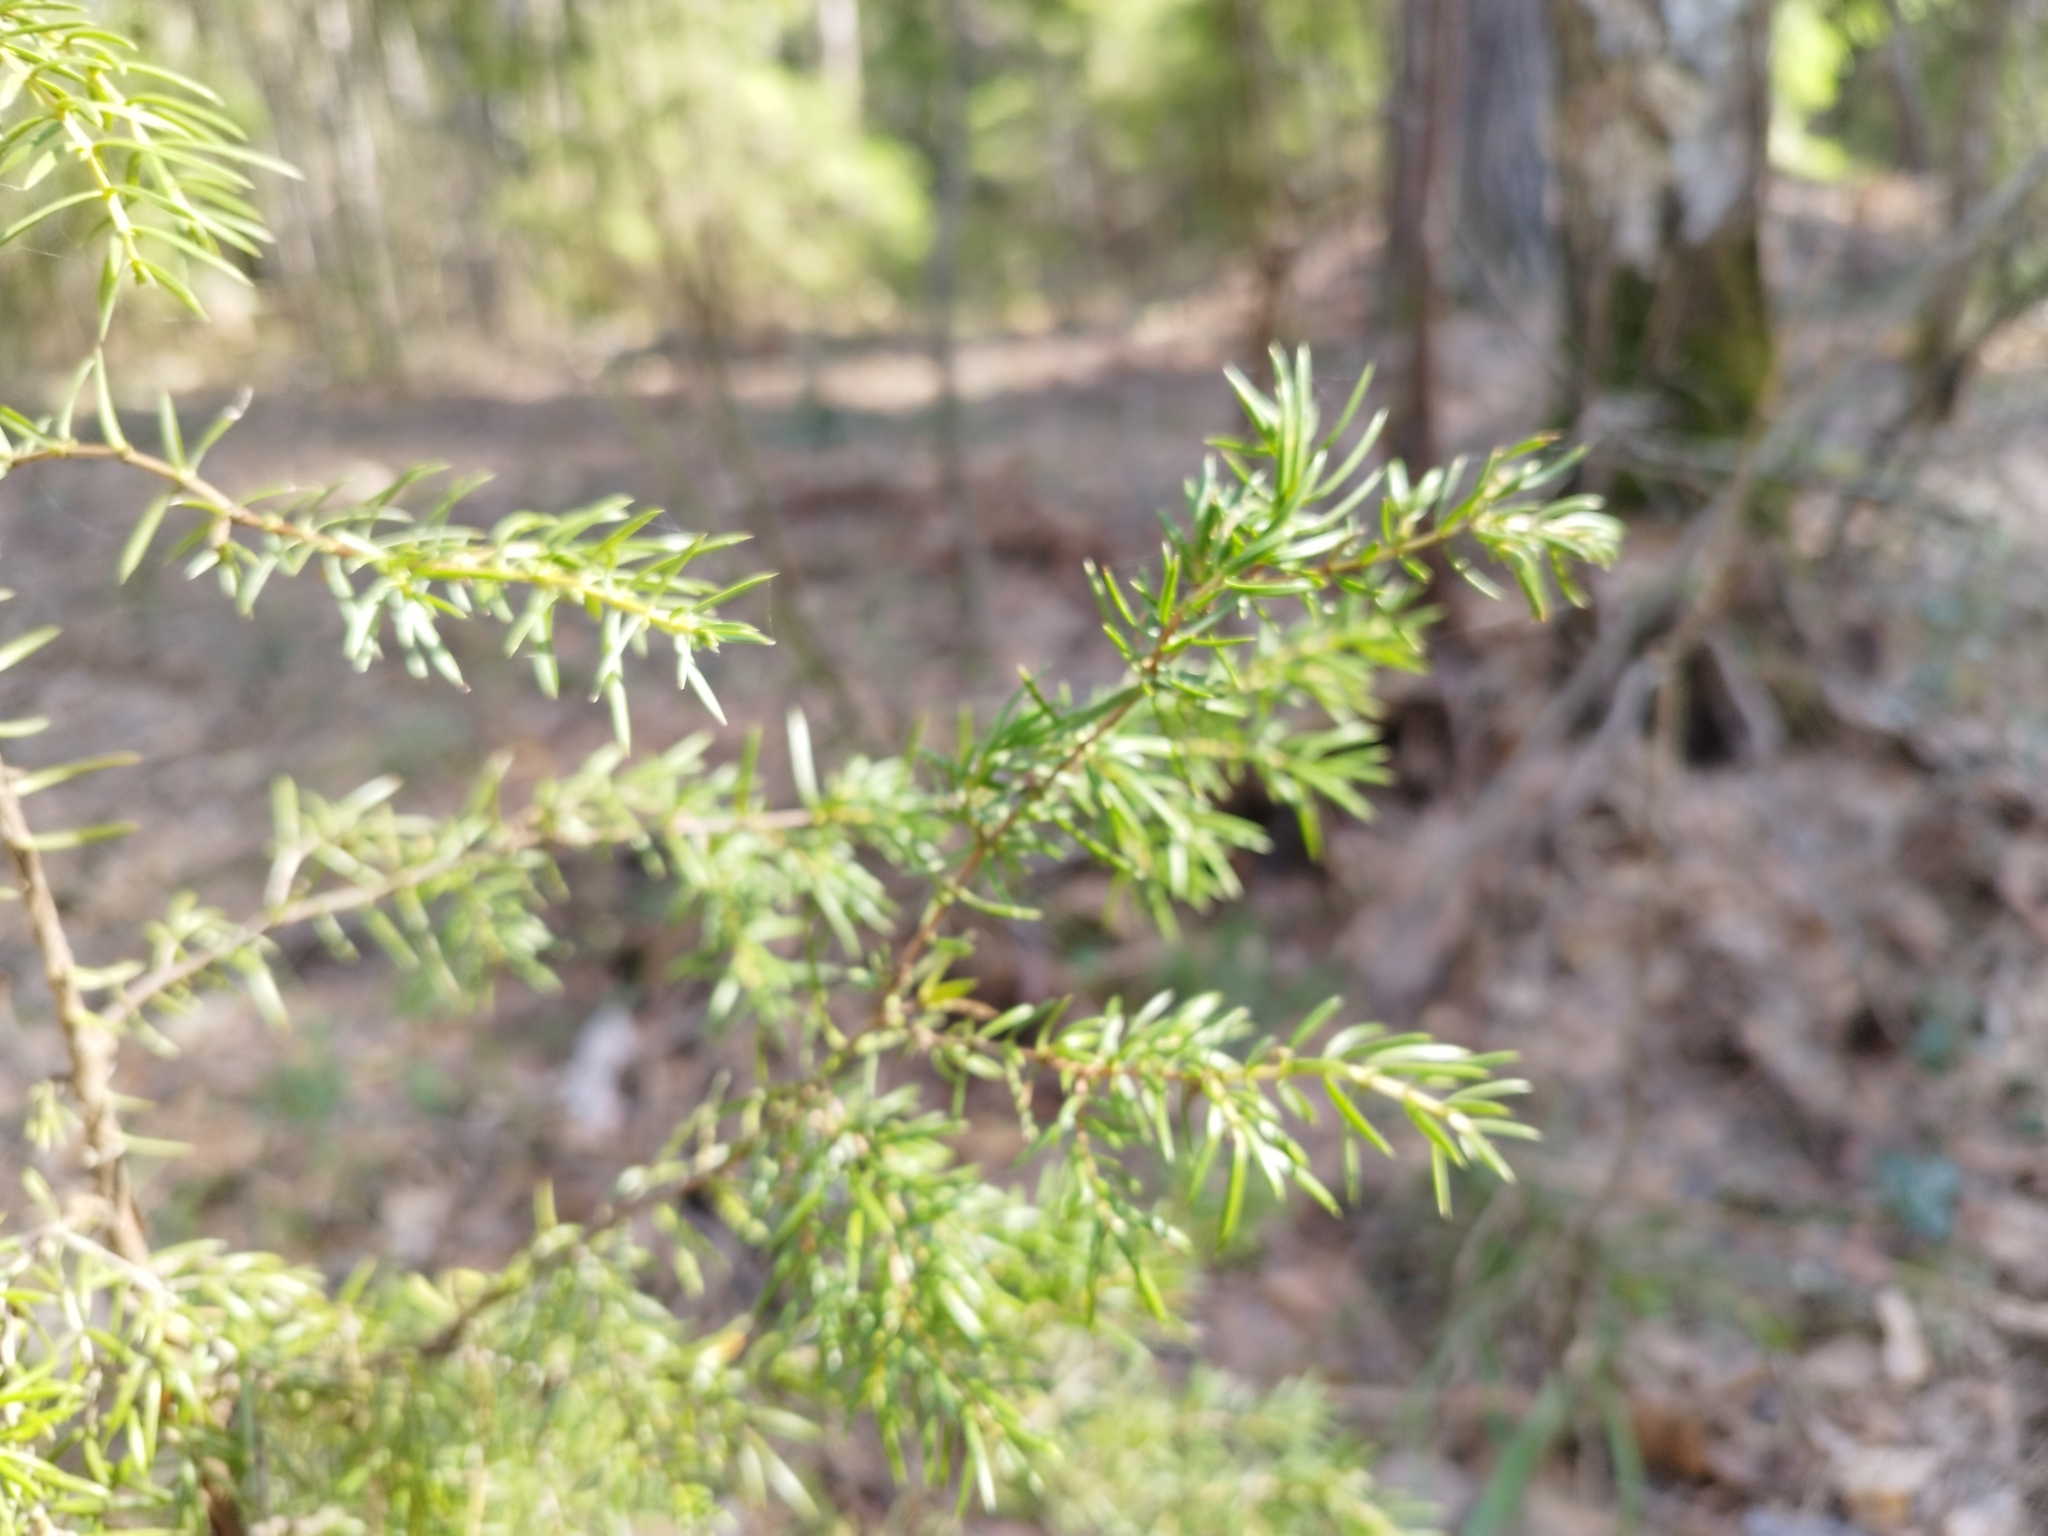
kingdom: Plantae
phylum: Tracheophyta
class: Pinopsida
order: Pinales
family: Cupressaceae
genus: Juniperus
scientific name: Juniperus communis
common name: Common juniper
